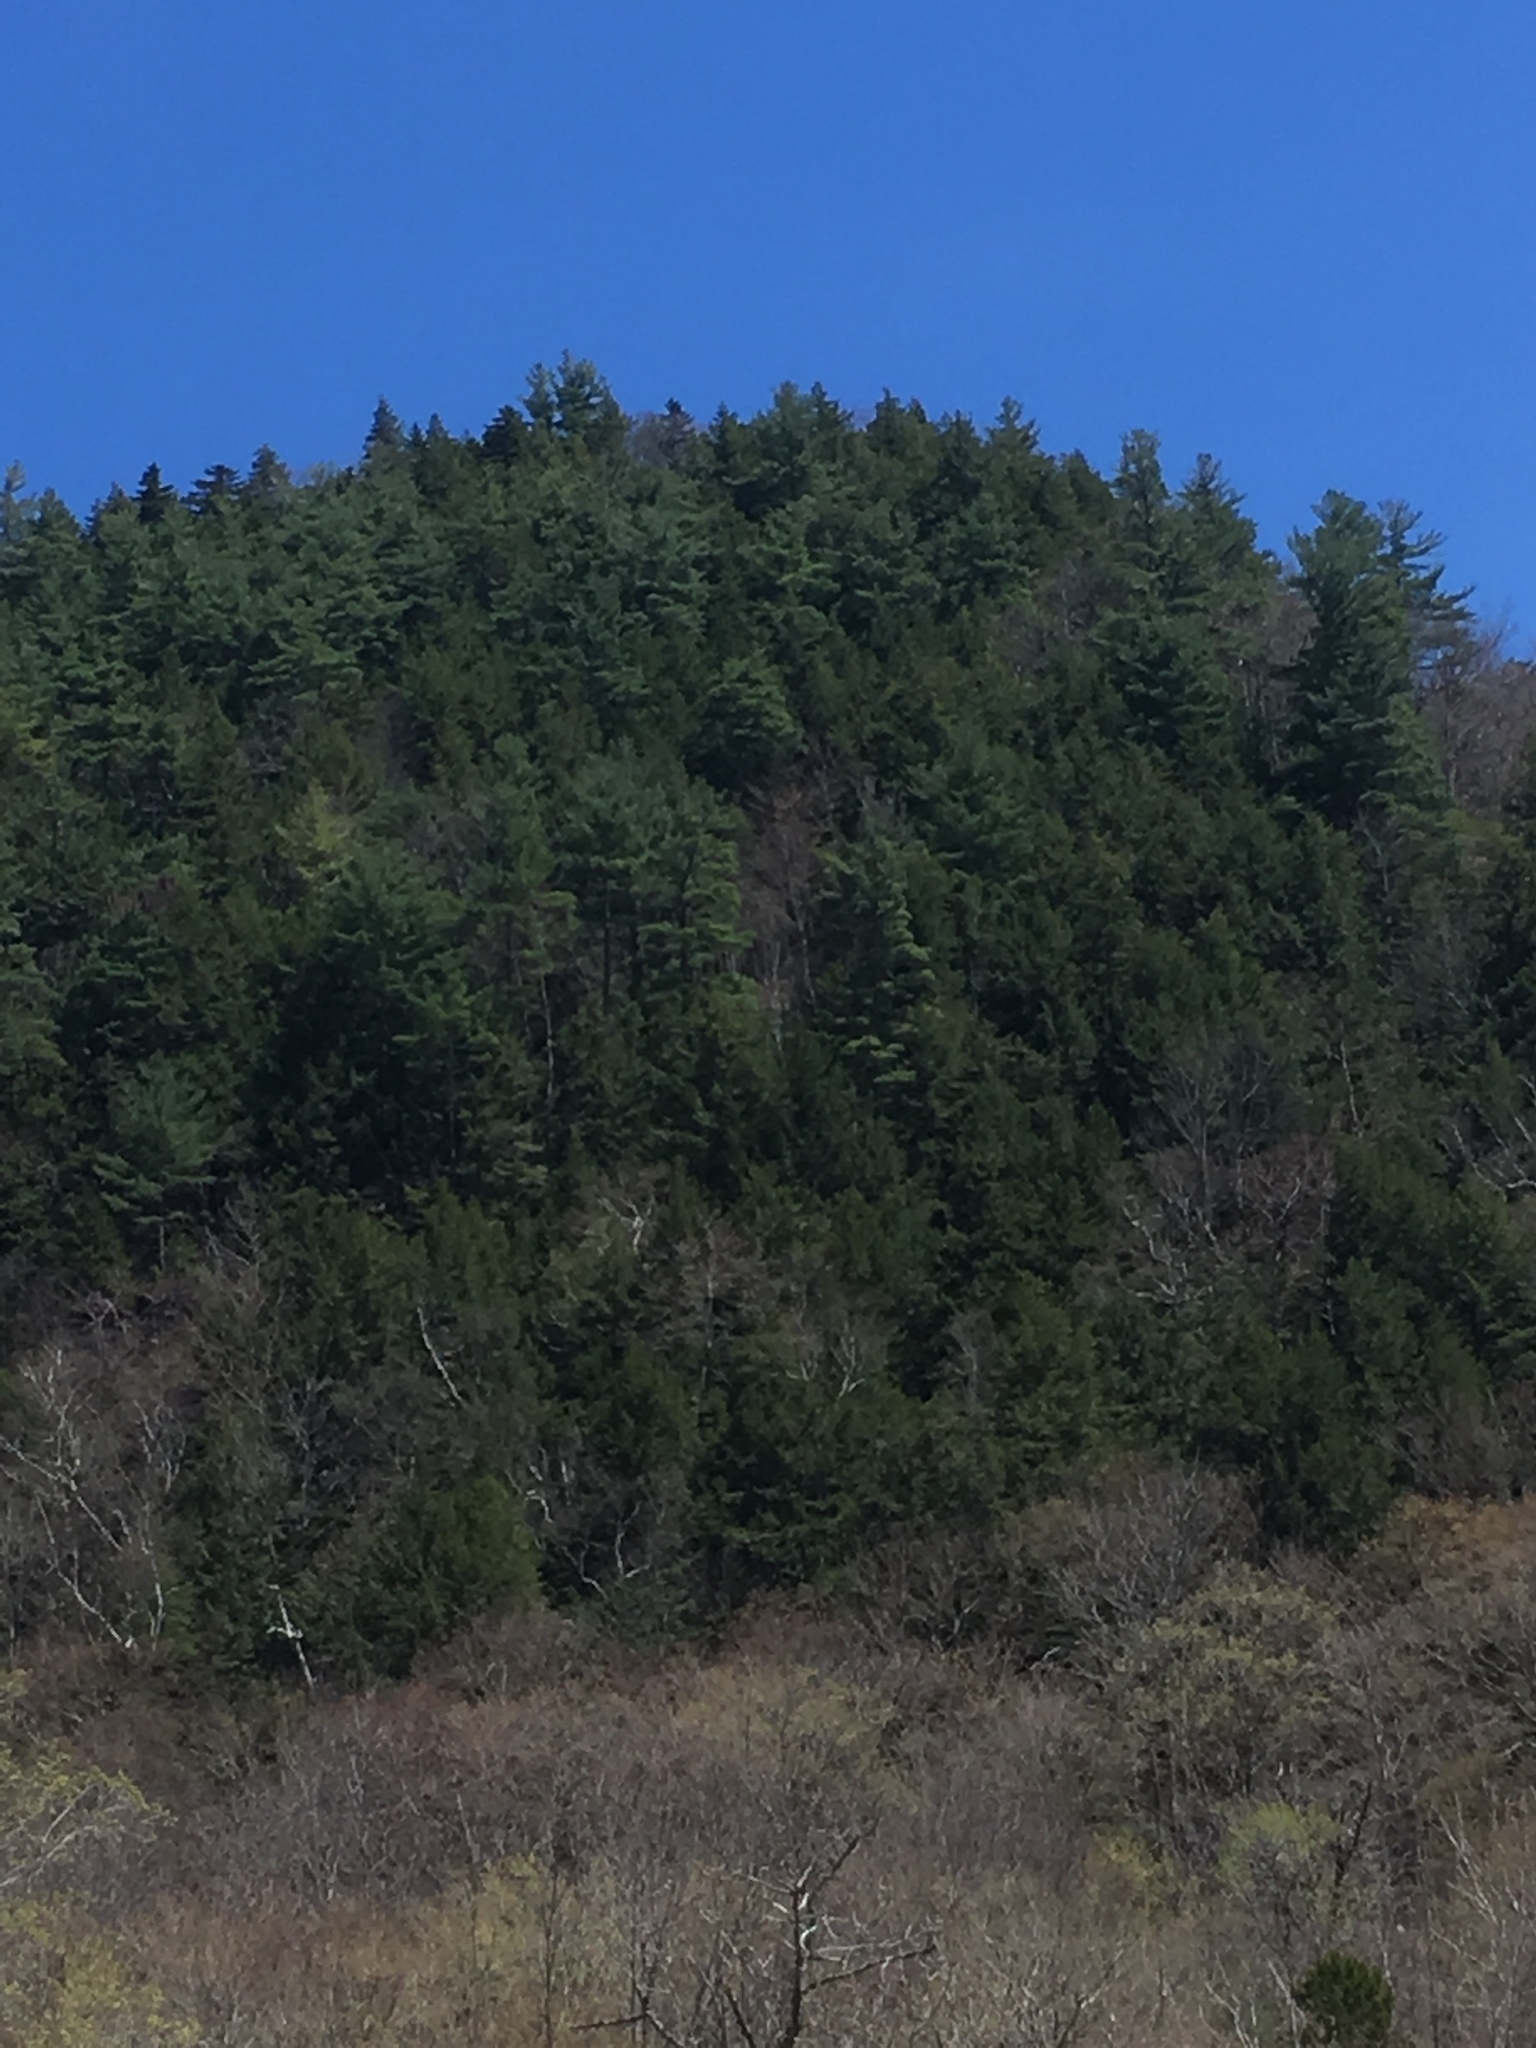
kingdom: Plantae
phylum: Tracheophyta
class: Pinopsida
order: Pinales
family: Pinaceae
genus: Tsuga
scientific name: Tsuga canadensis
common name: Eastern hemlock
